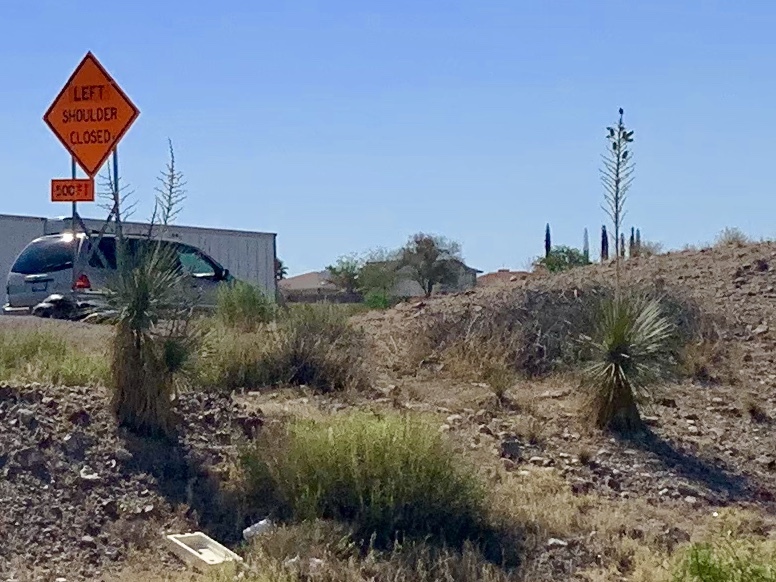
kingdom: Plantae
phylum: Tracheophyta
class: Liliopsida
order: Asparagales
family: Asparagaceae
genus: Yucca
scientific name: Yucca elata
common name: Palmella
